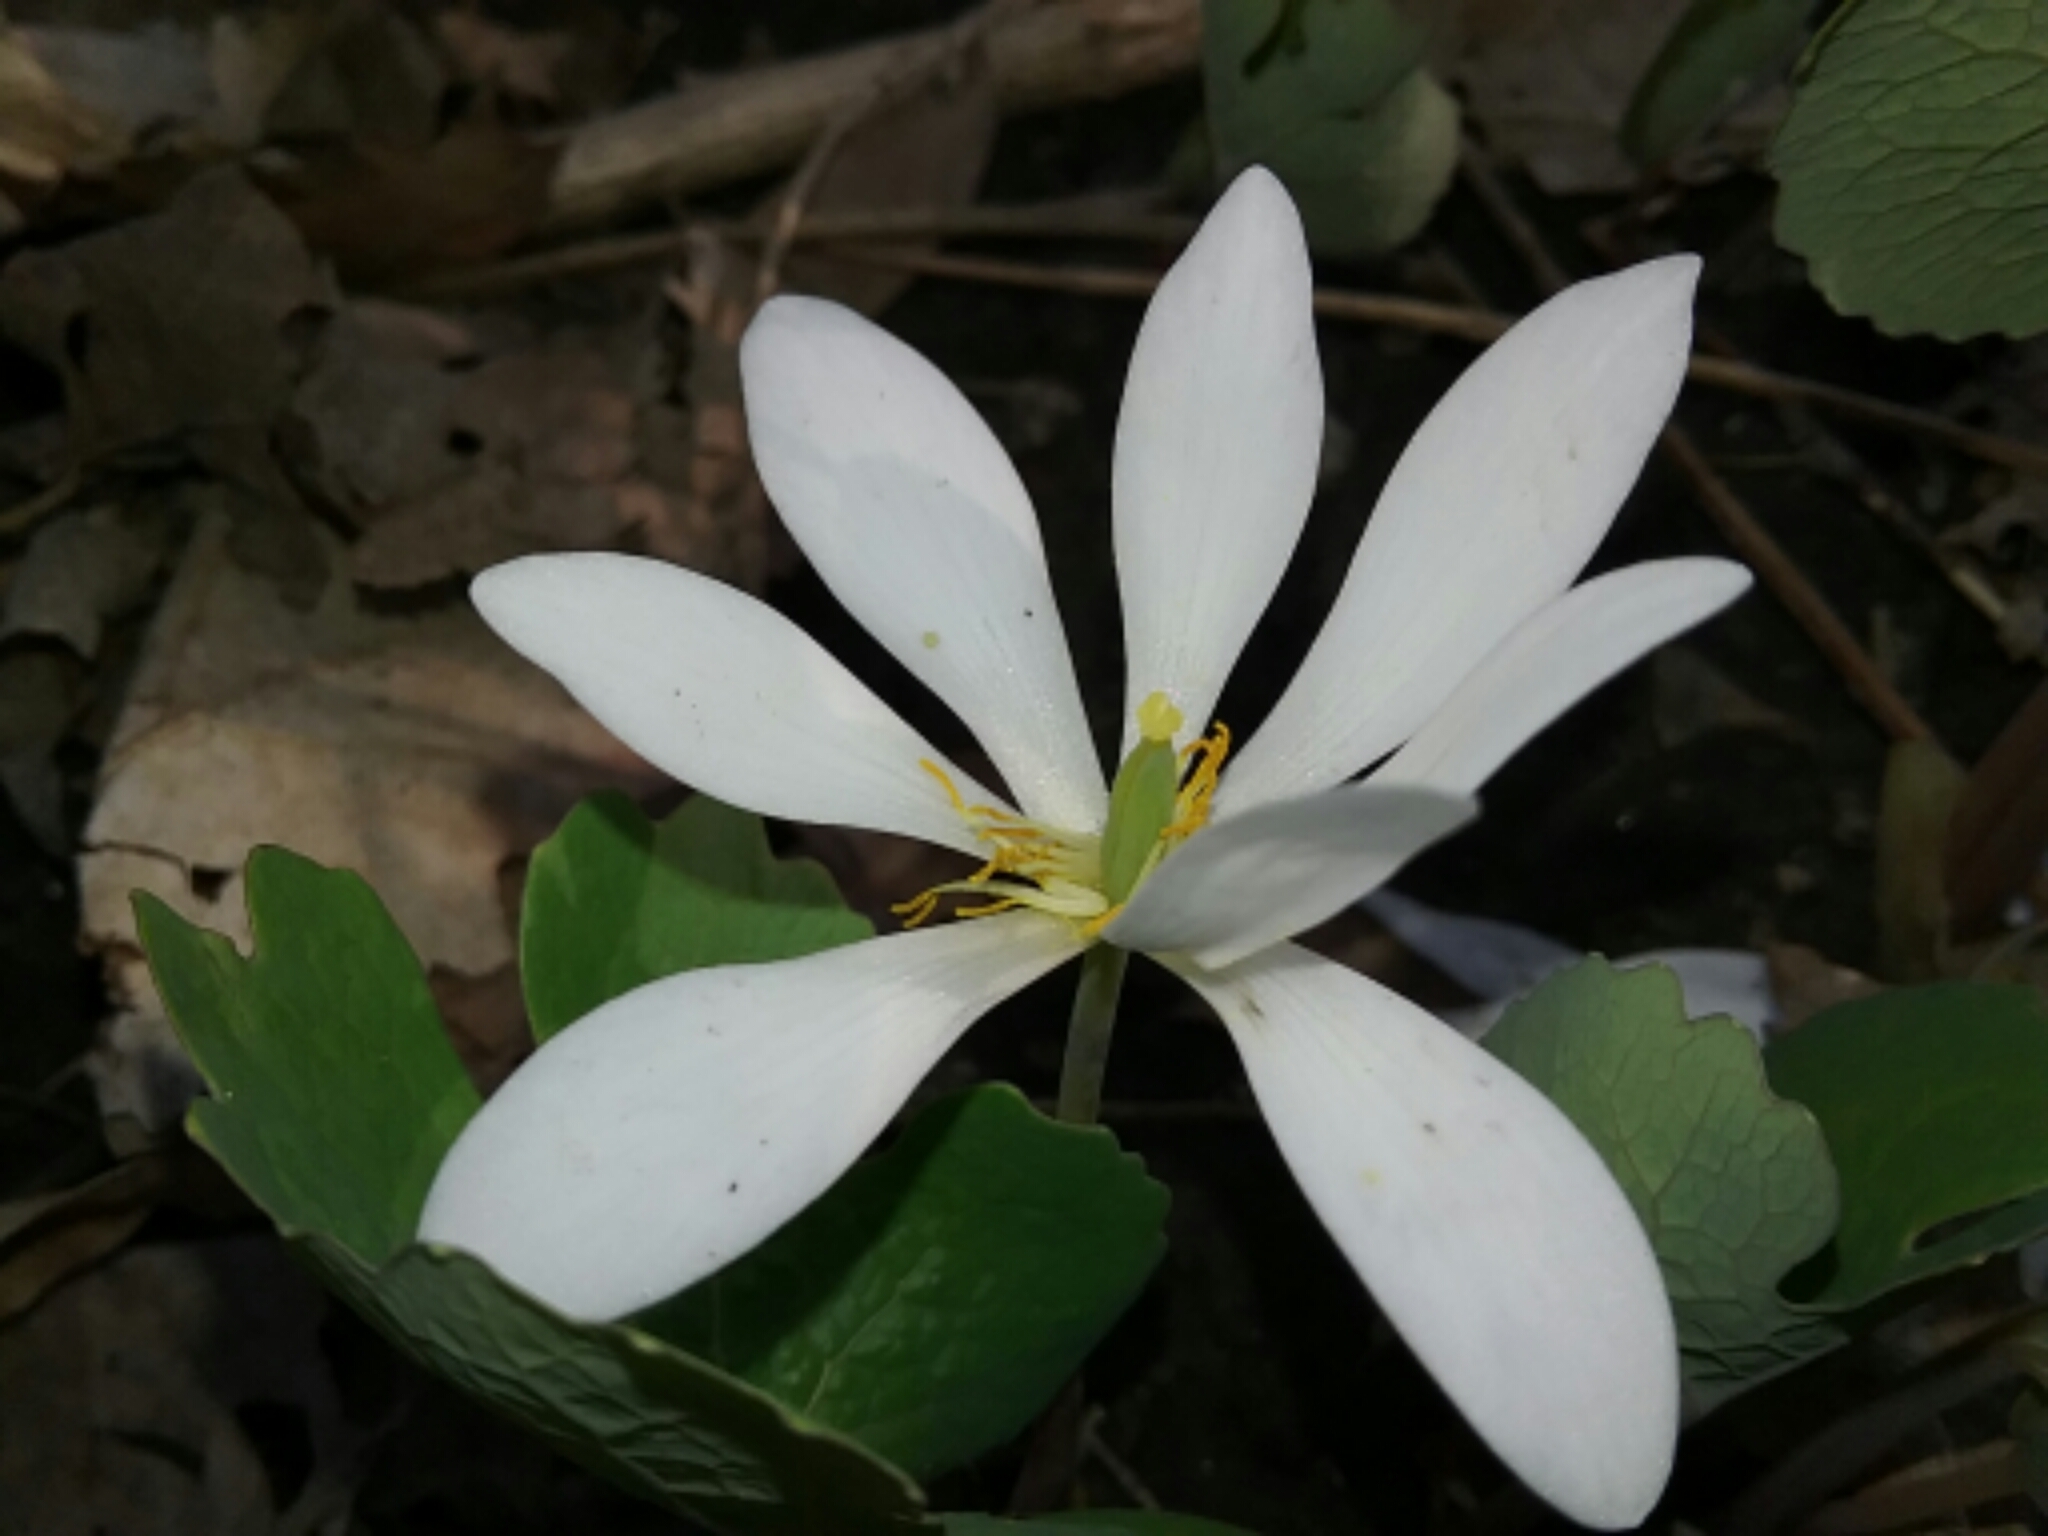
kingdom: Plantae
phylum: Tracheophyta
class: Magnoliopsida
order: Ranunculales
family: Papaveraceae
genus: Sanguinaria
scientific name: Sanguinaria canadensis
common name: Bloodroot
